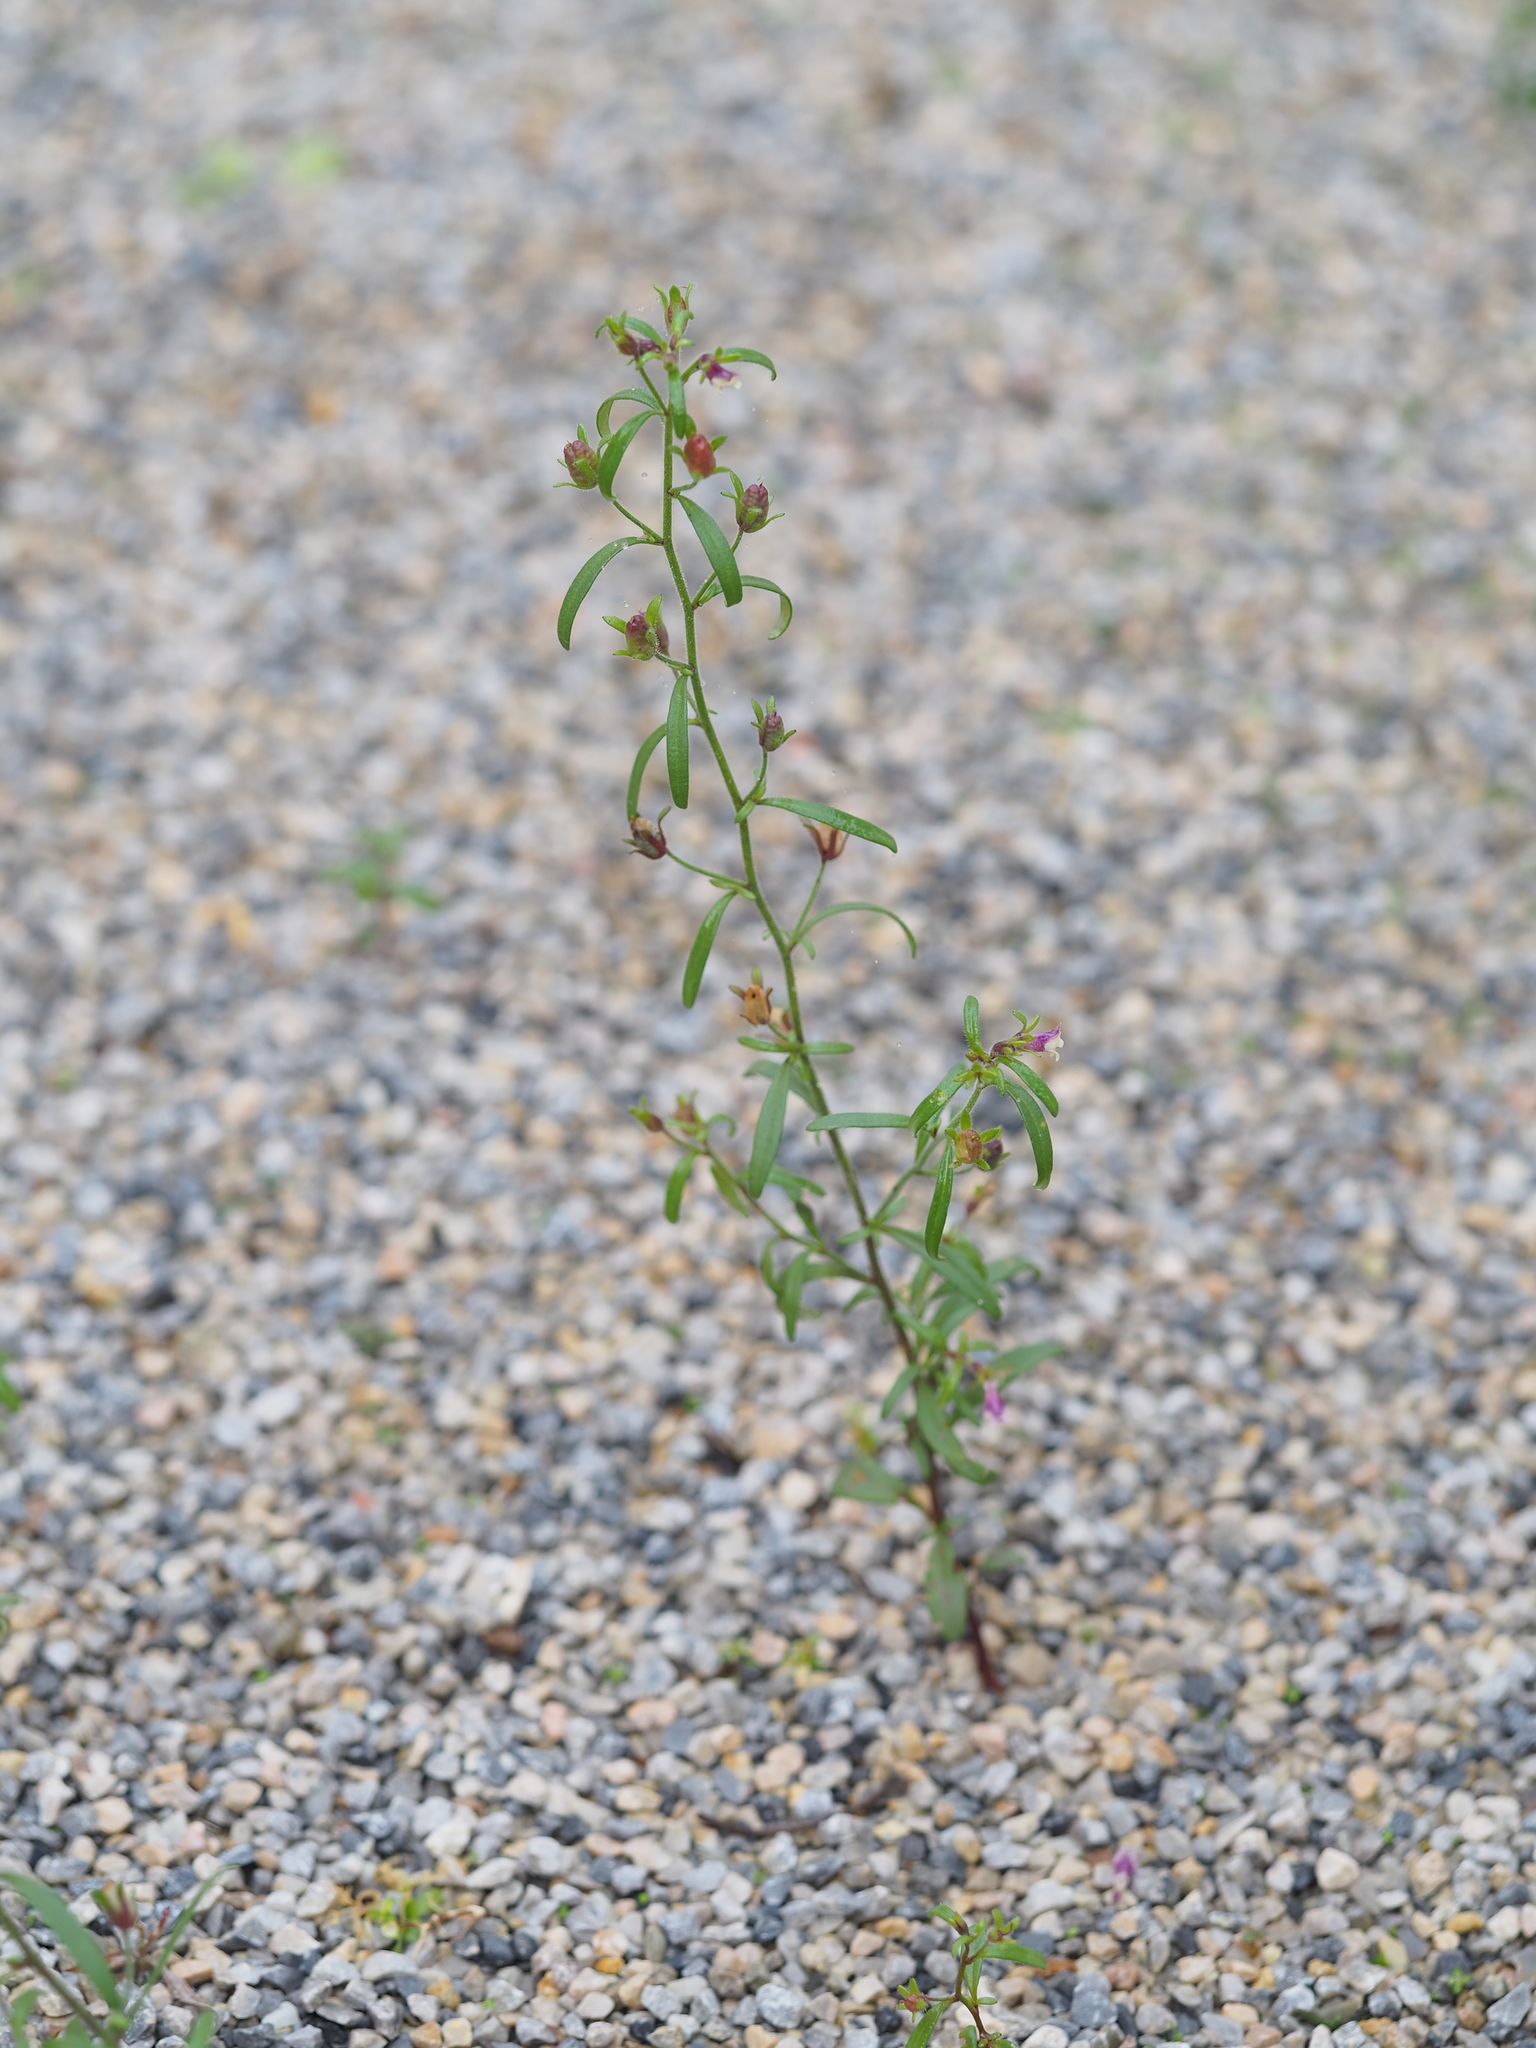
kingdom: Plantae
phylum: Tracheophyta
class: Magnoliopsida
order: Lamiales
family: Plantaginaceae
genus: Chaenorhinum
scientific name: Chaenorhinum minus
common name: Dwarf snapdragon
